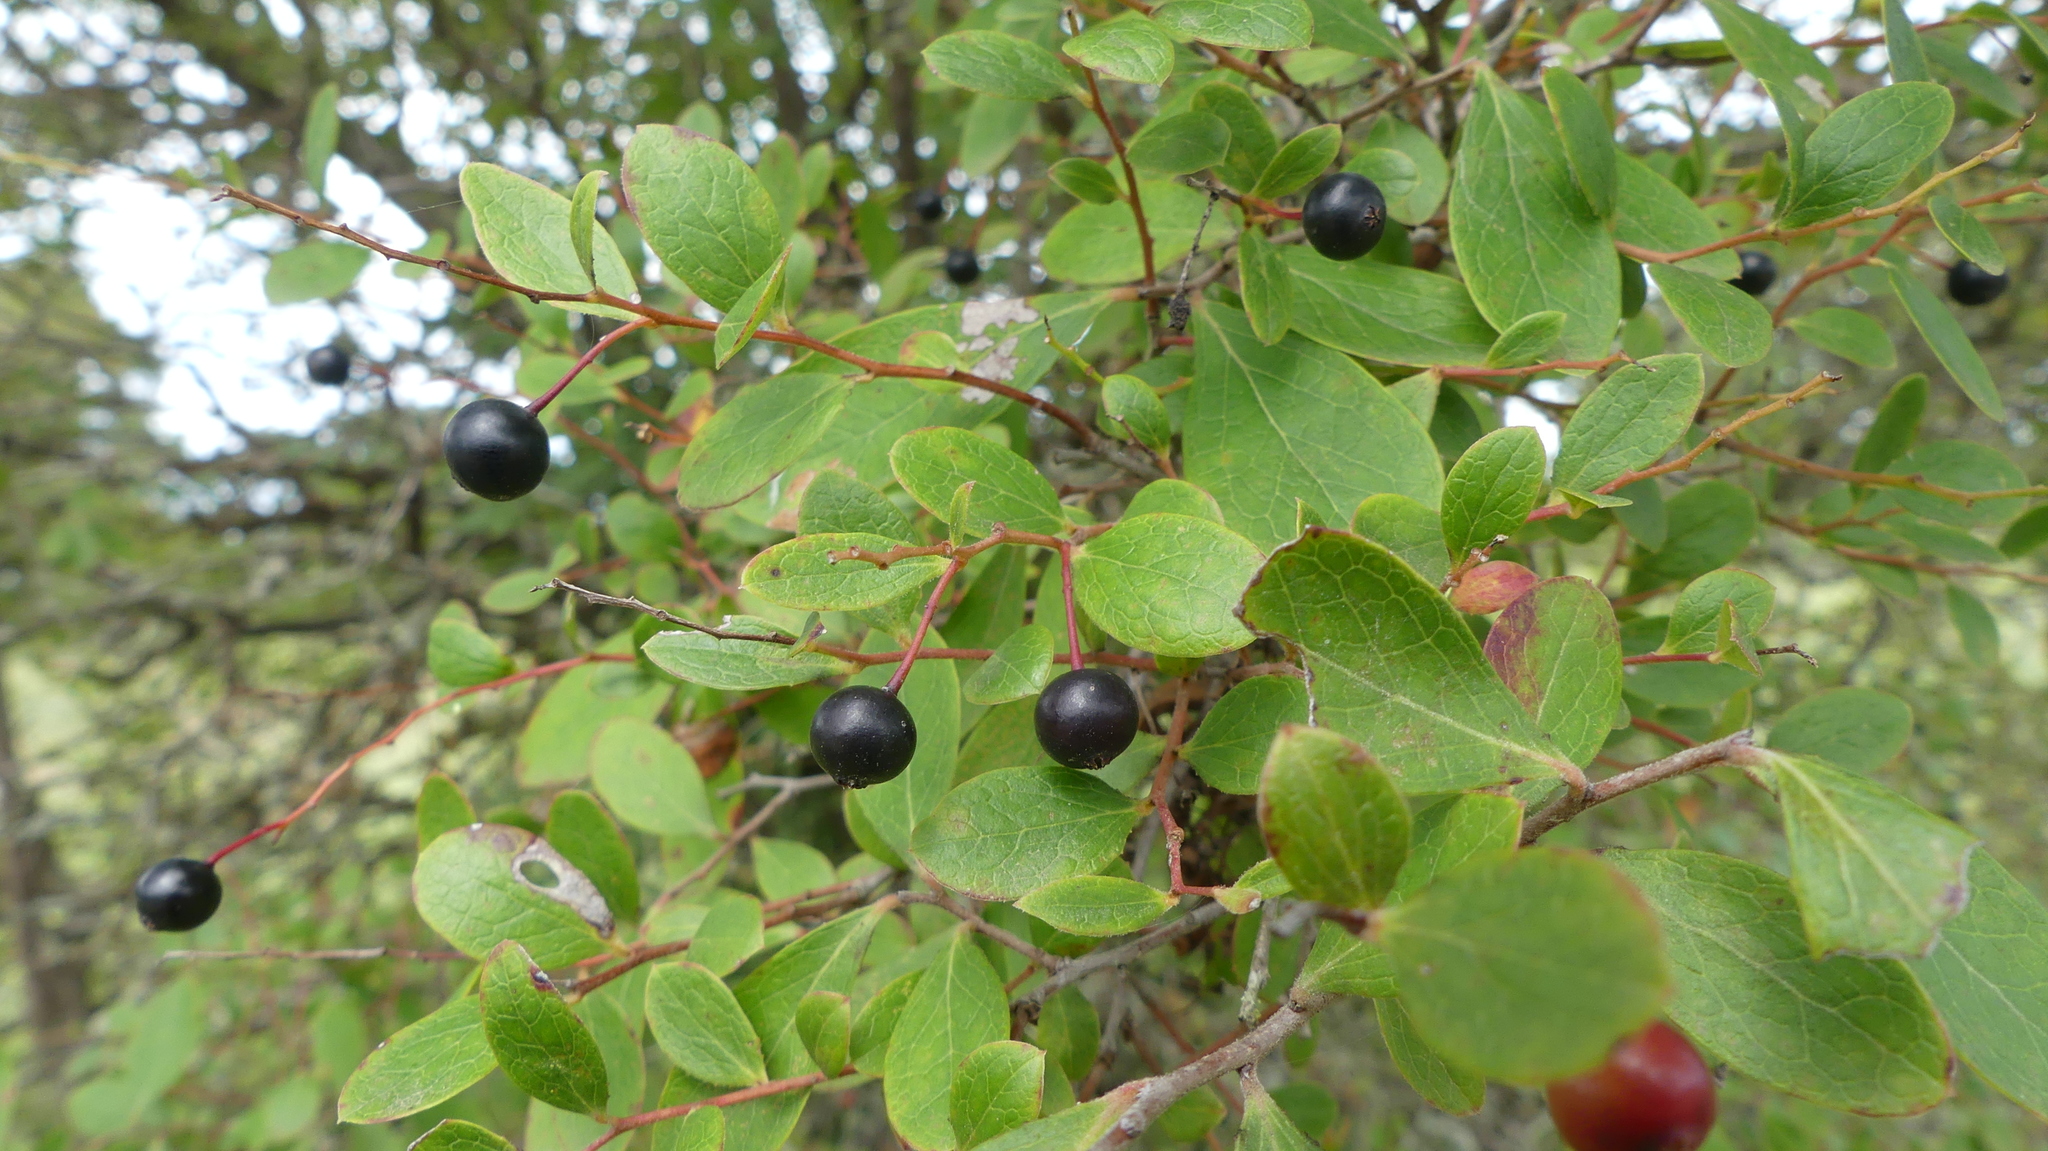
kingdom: Plantae
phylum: Tracheophyta
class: Magnoliopsida
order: Ericales
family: Ericaceae
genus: Vaccinium
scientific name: Vaccinium arboreum
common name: Farkleberry
